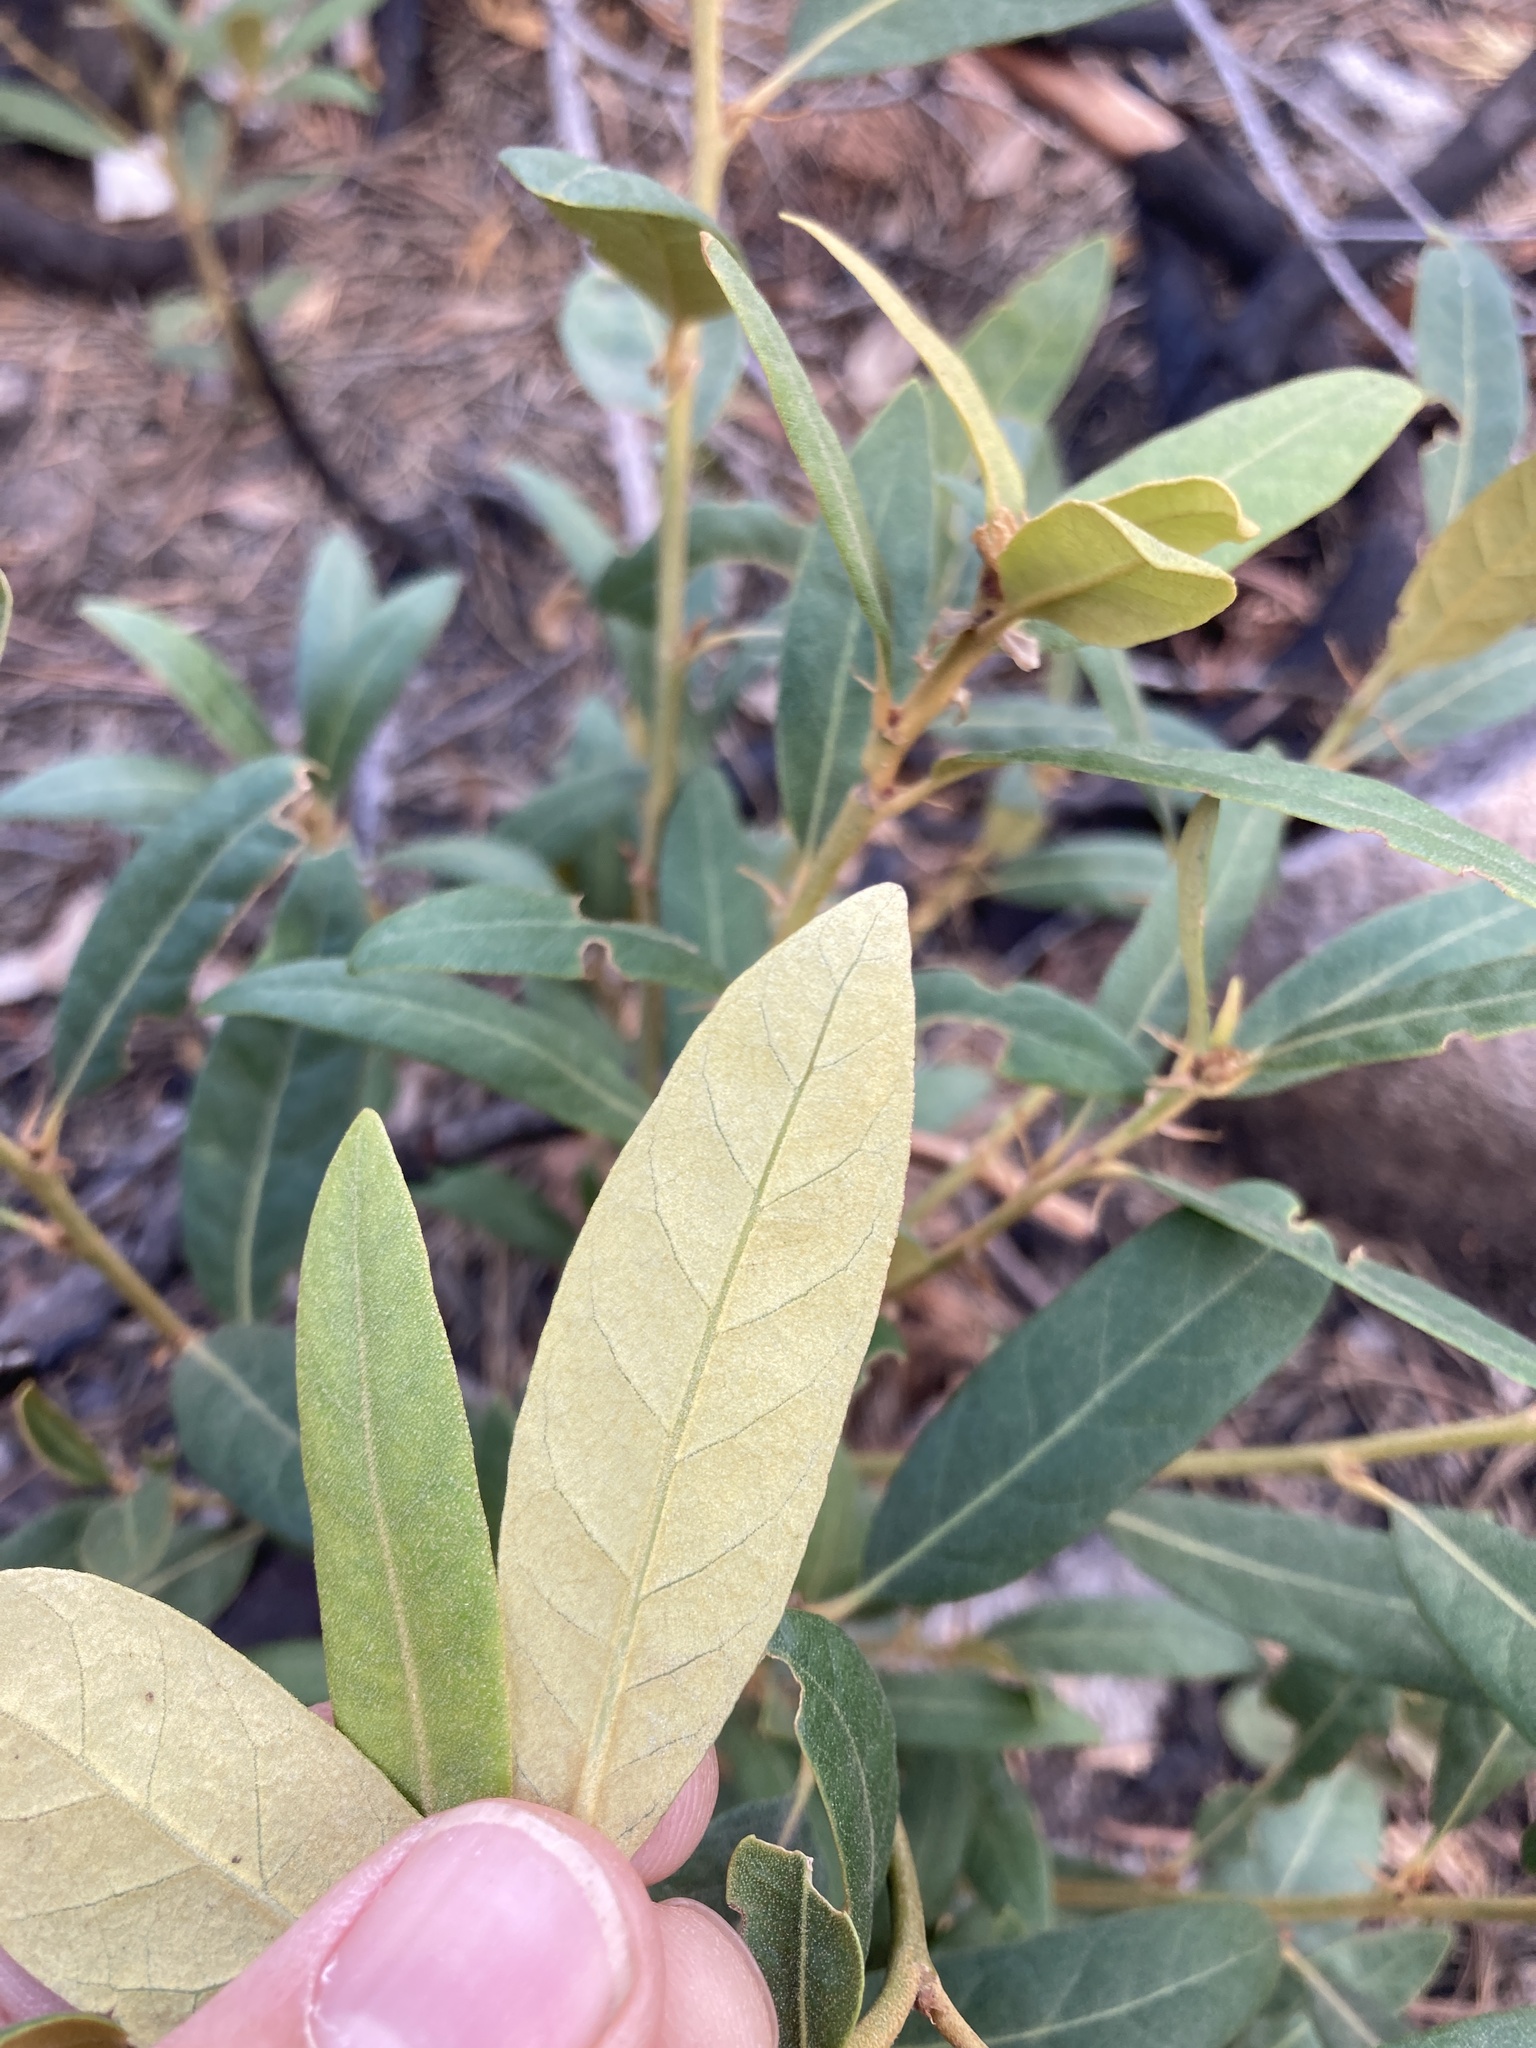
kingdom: Plantae
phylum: Tracheophyta
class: Magnoliopsida
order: Fagales
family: Fagaceae
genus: Chrysolepis
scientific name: Chrysolepis sempervirens
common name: Bush chinquapin
